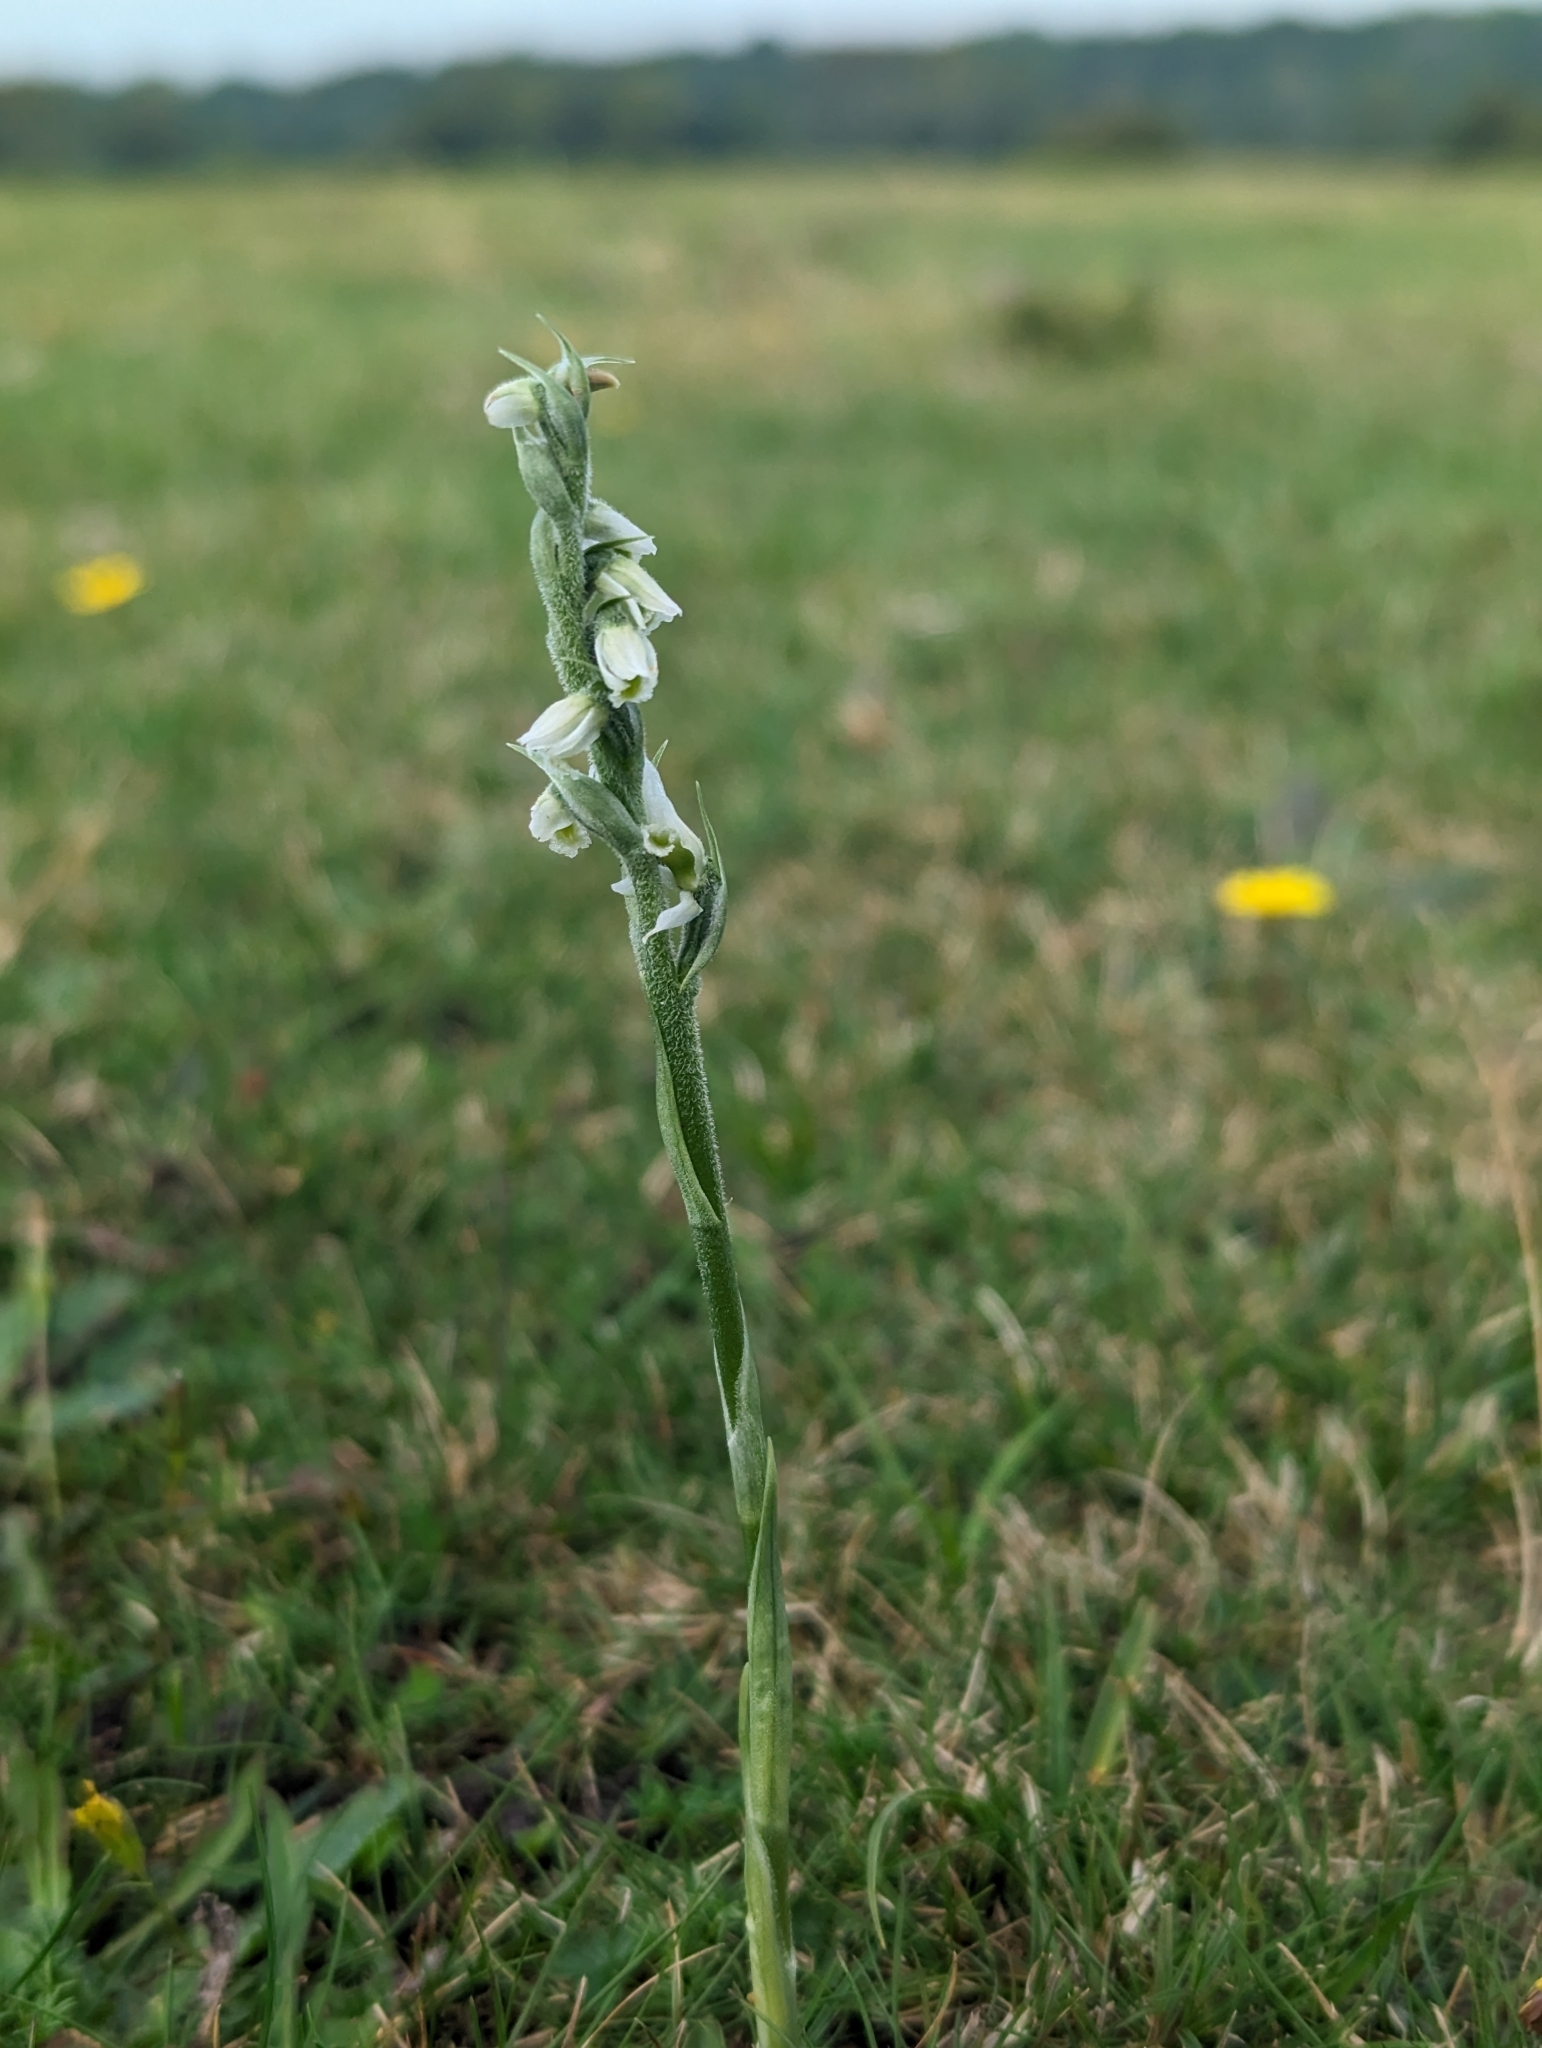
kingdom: Plantae
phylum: Tracheophyta
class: Liliopsida
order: Asparagales
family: Orchidaceae
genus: Spiranthes
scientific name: Spiranthes spiralis
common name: Autumn lady's-tresses
